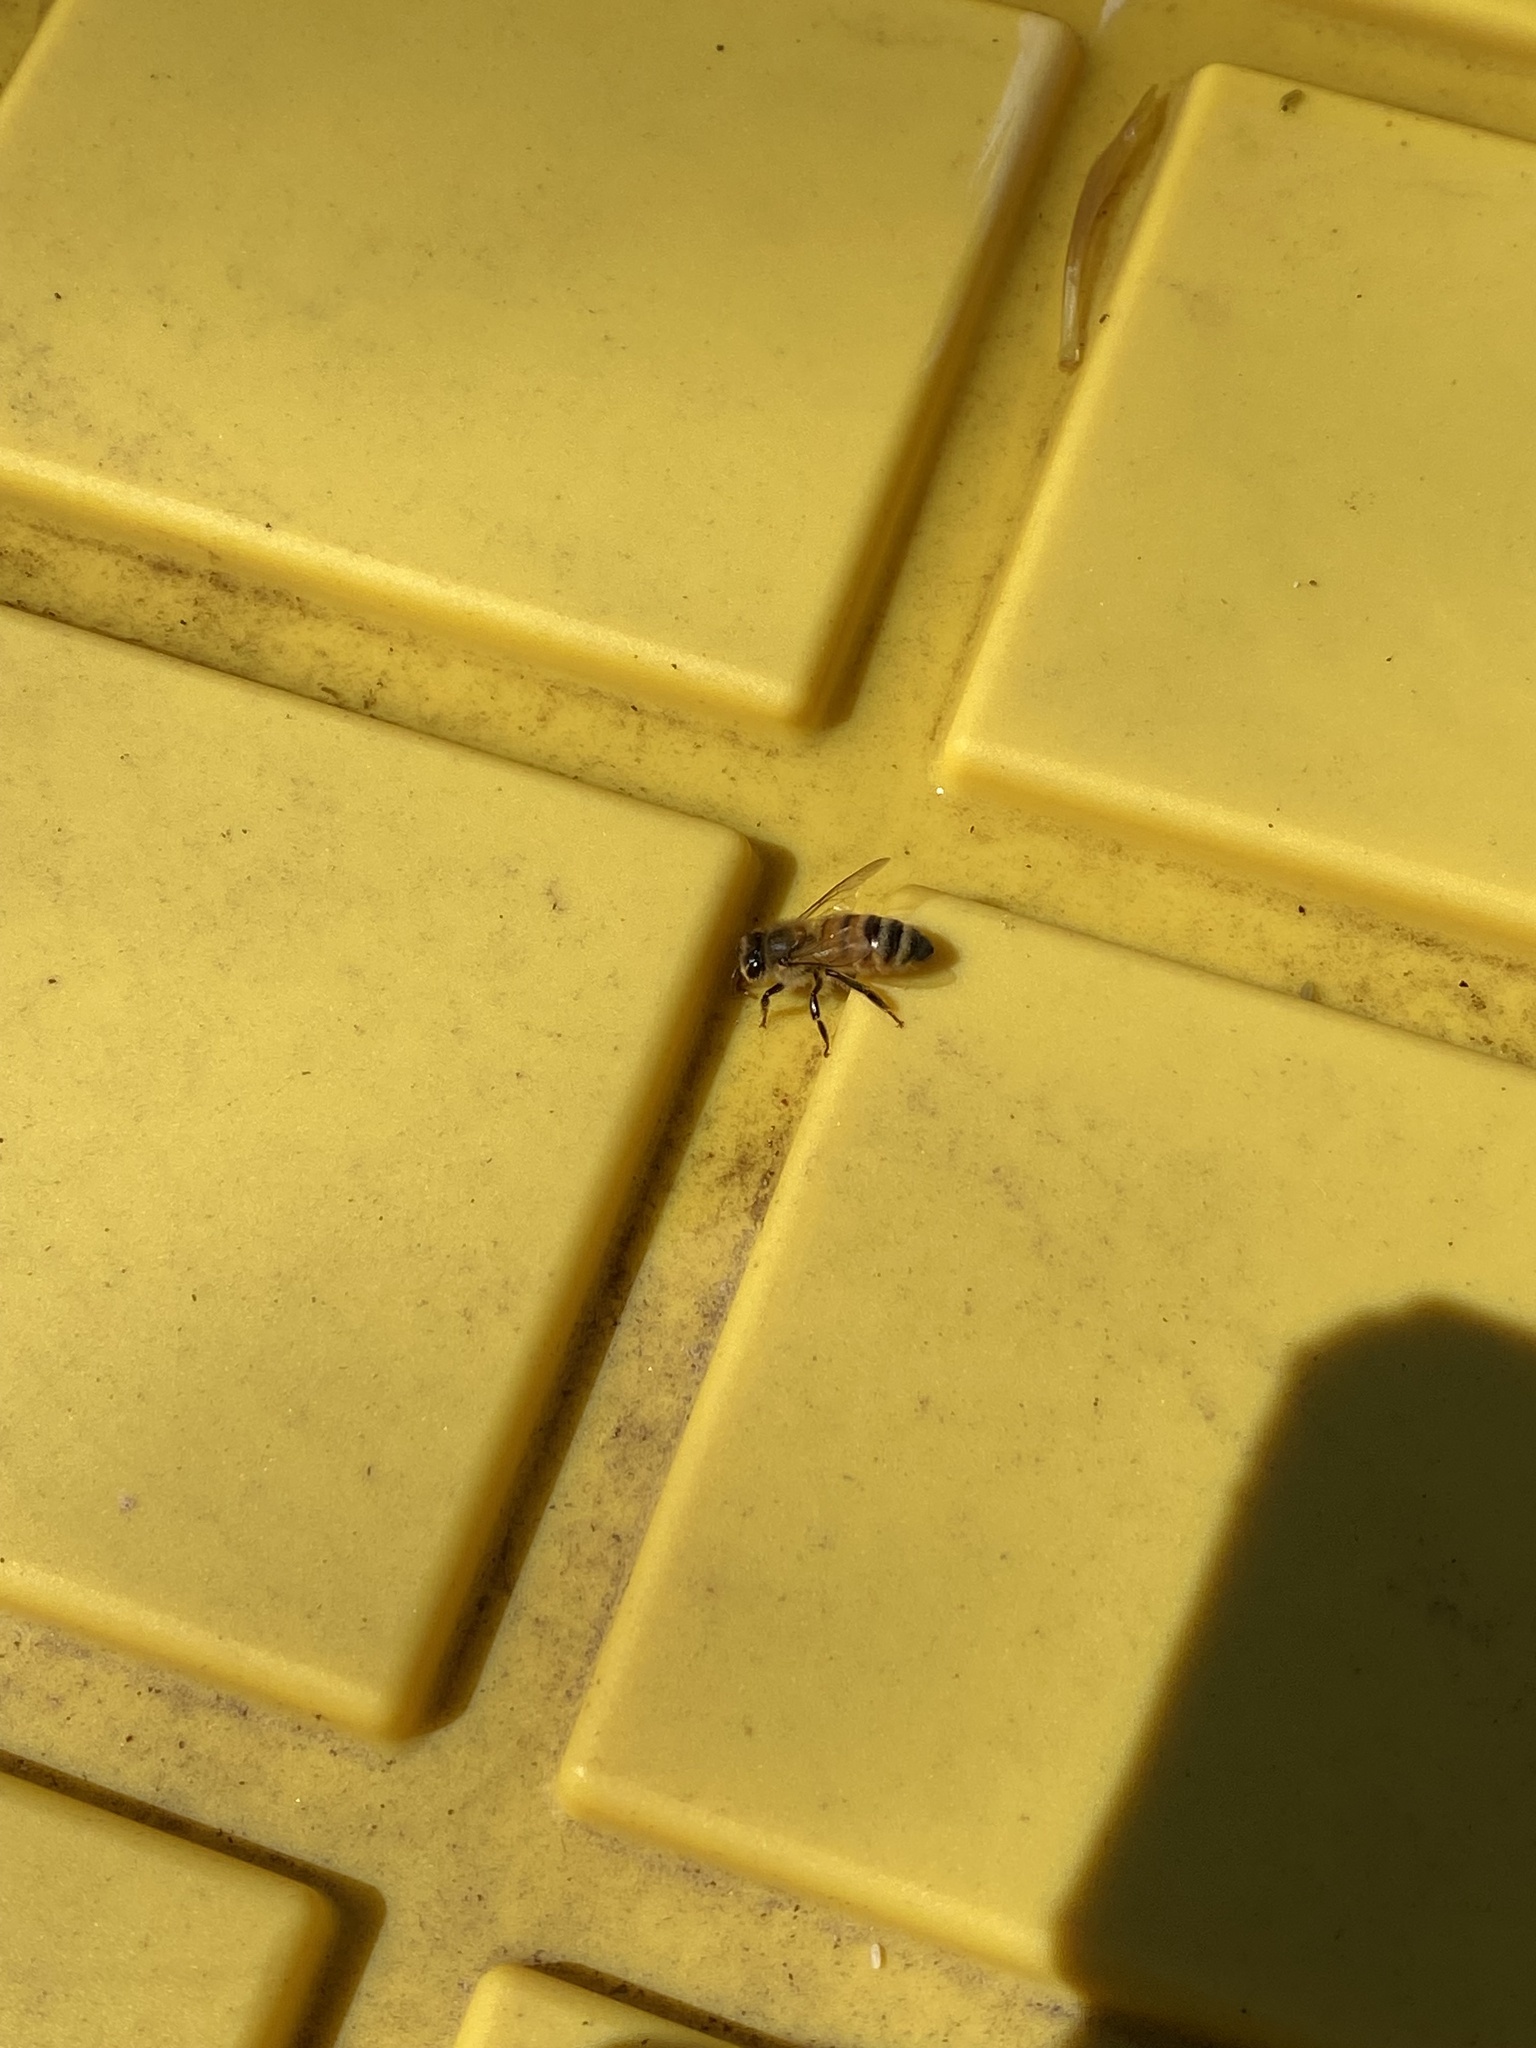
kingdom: Animalia
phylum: Arthropoda
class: Insecta
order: Hymenoptera
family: Apidae
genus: Apis
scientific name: Apis mellifera
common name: Honey bee
